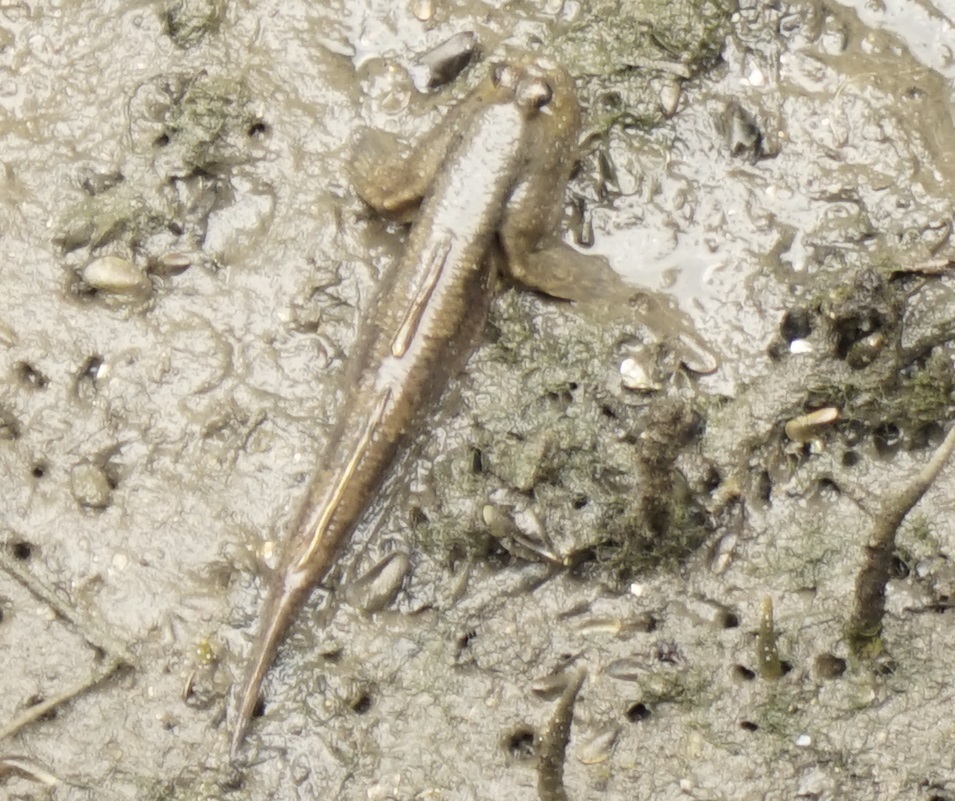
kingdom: Animalia
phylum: Chordata
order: Perciformes
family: Gobiidae
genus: Periophthalmodon
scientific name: Periophthalmodon schlosseri
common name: Giant mudskipper
